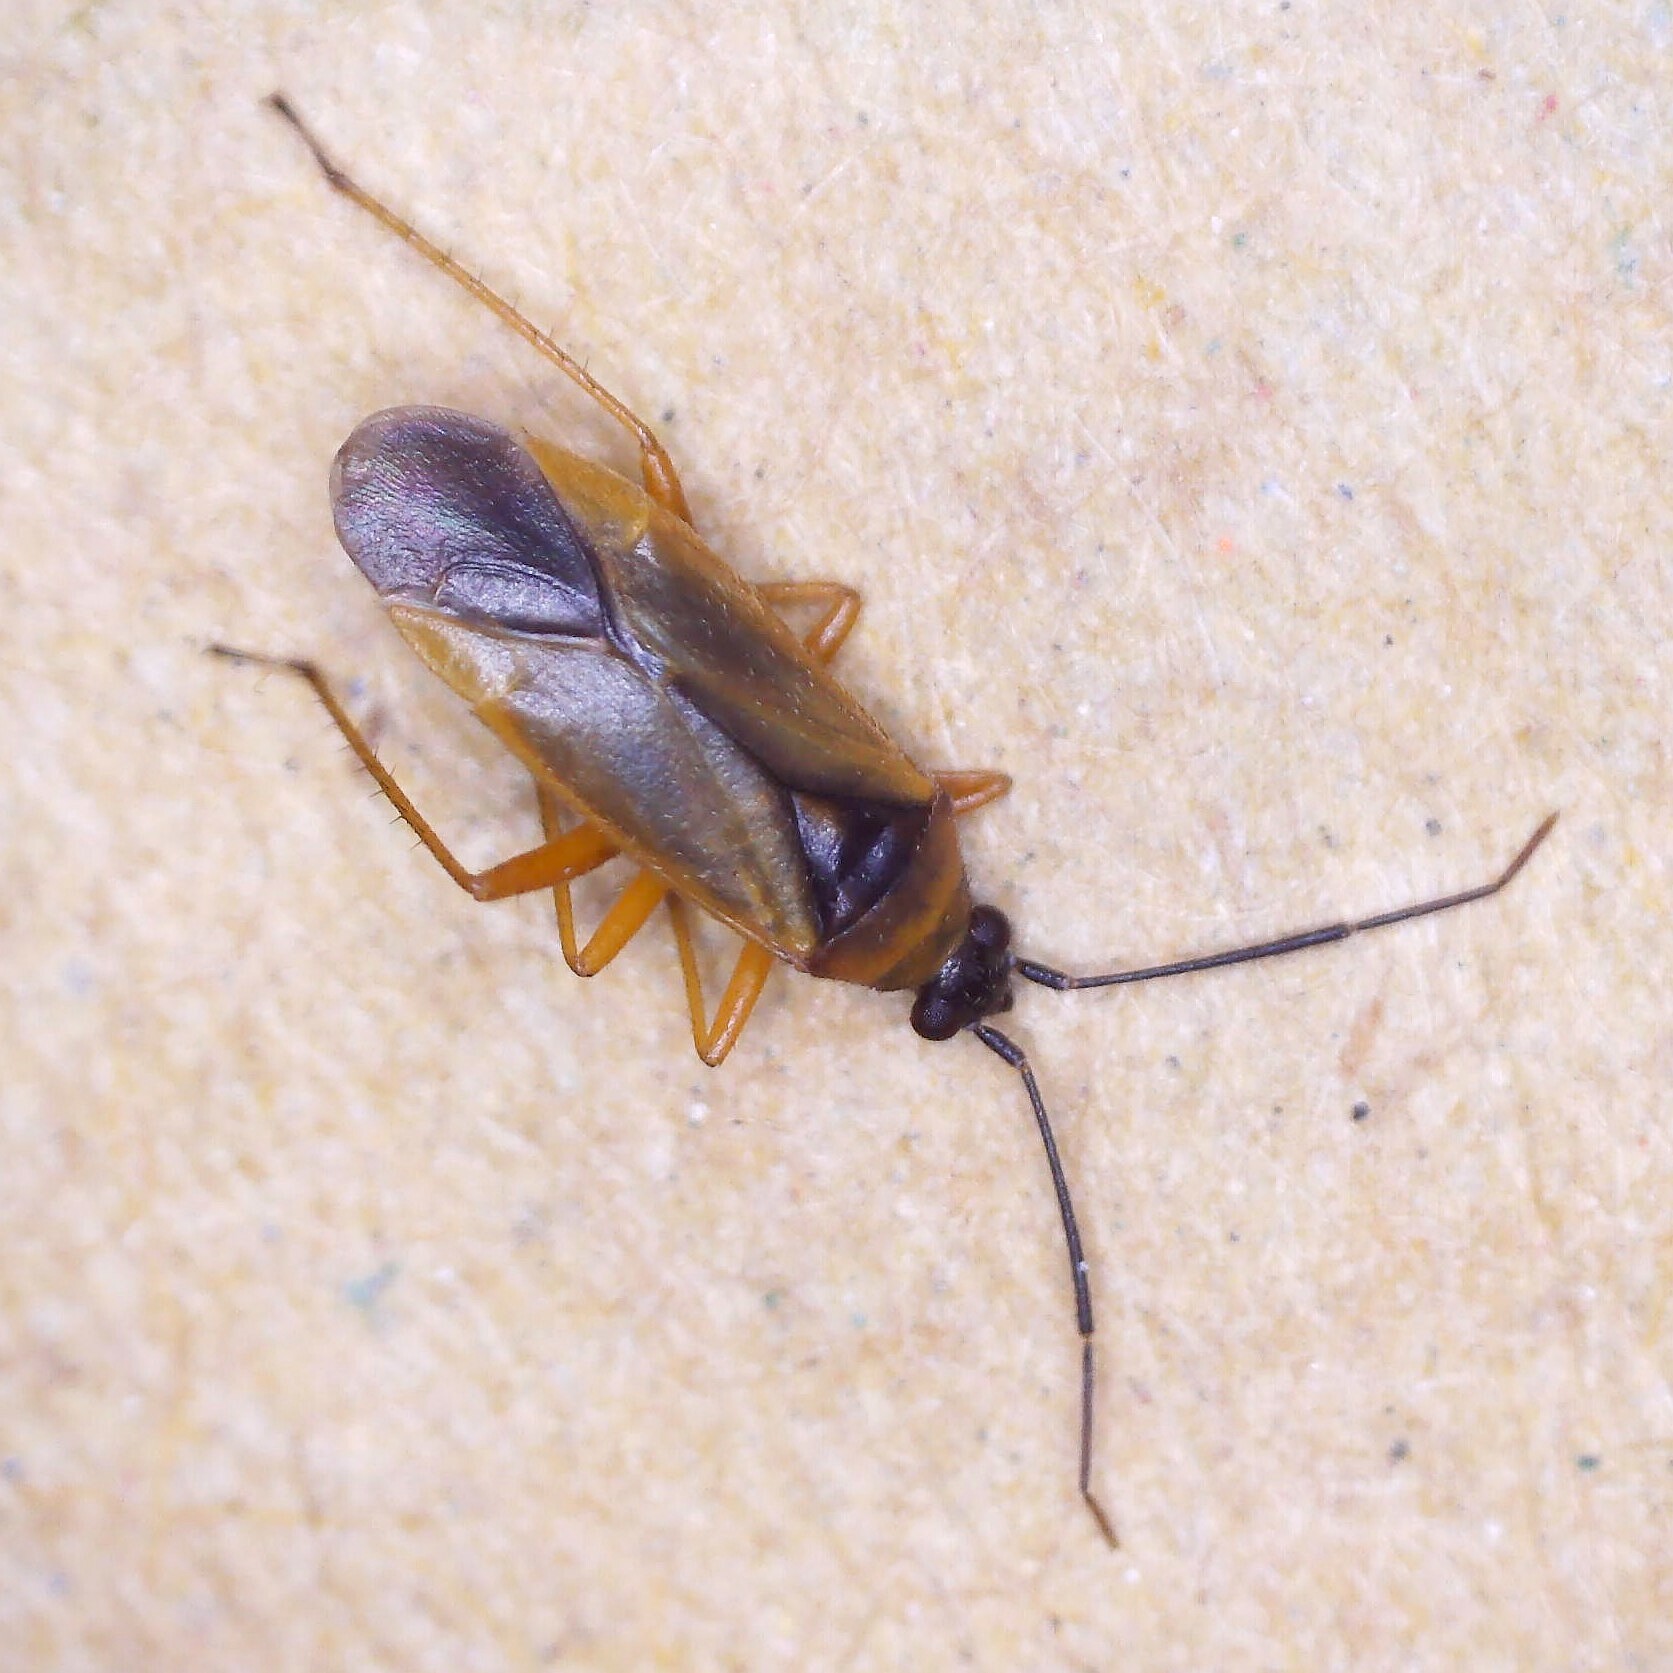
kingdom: Animalia
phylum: Arthropoda
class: Insecta
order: Hemiptera
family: Miridae
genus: Brachyarthrum
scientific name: Brachyarthrum limitatum
